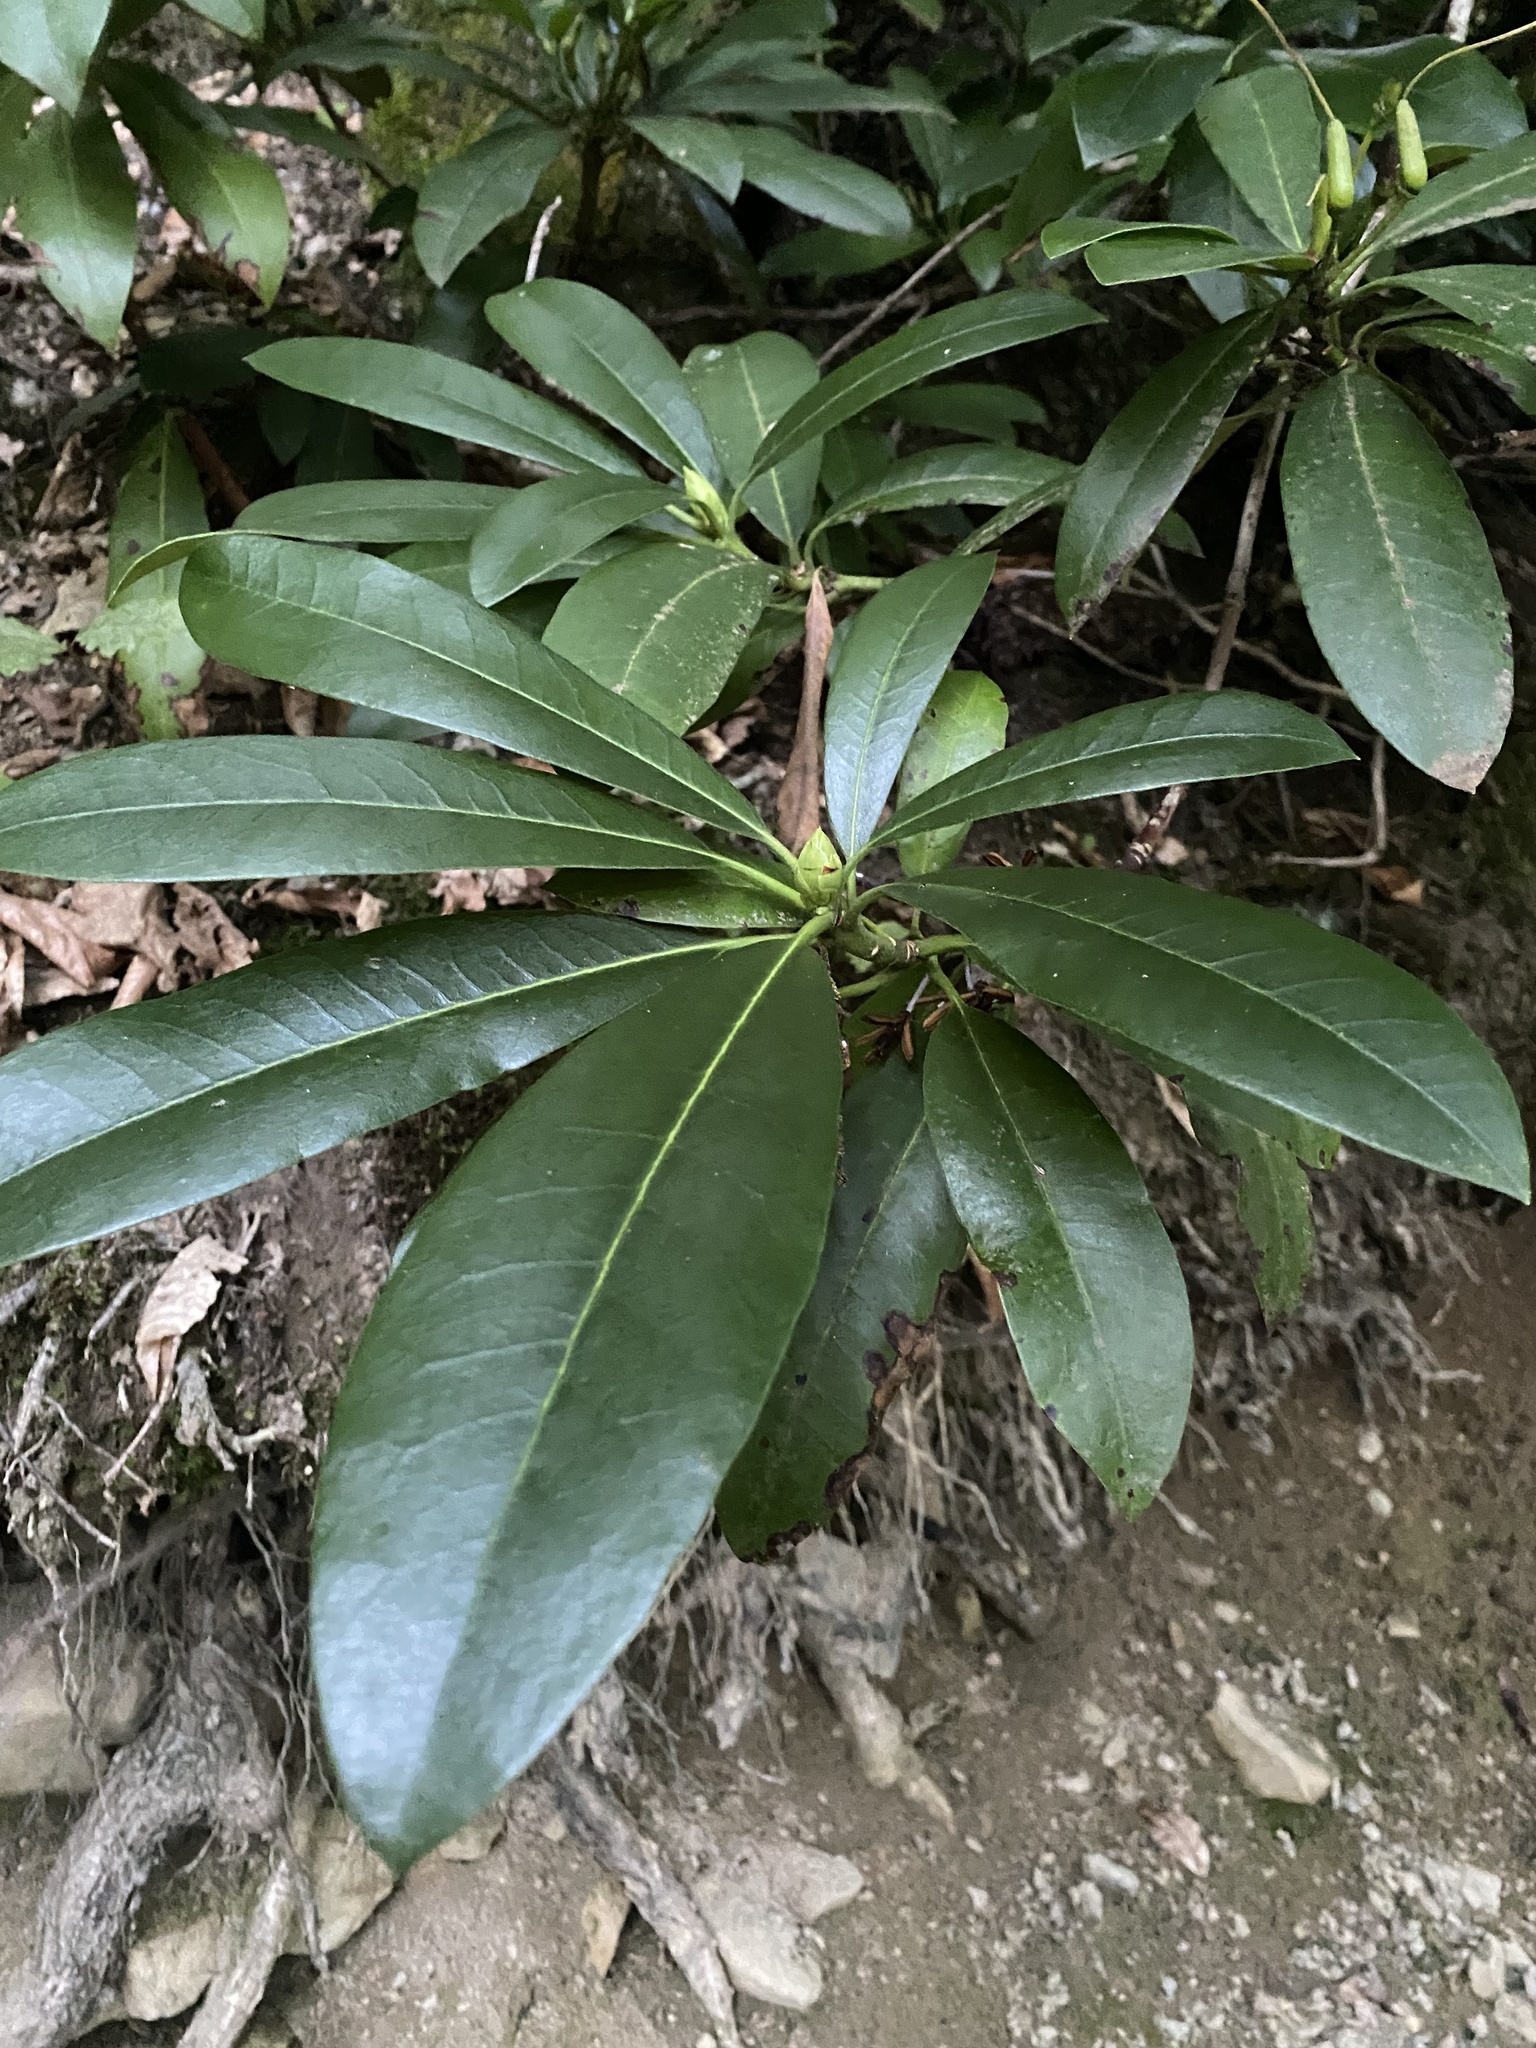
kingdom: Plantae
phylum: Tracheophyta
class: Magnoliopsida
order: Ericales
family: Ericaceae
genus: Rhododendron
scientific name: Rhododendron ponticum
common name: Rhododendron
